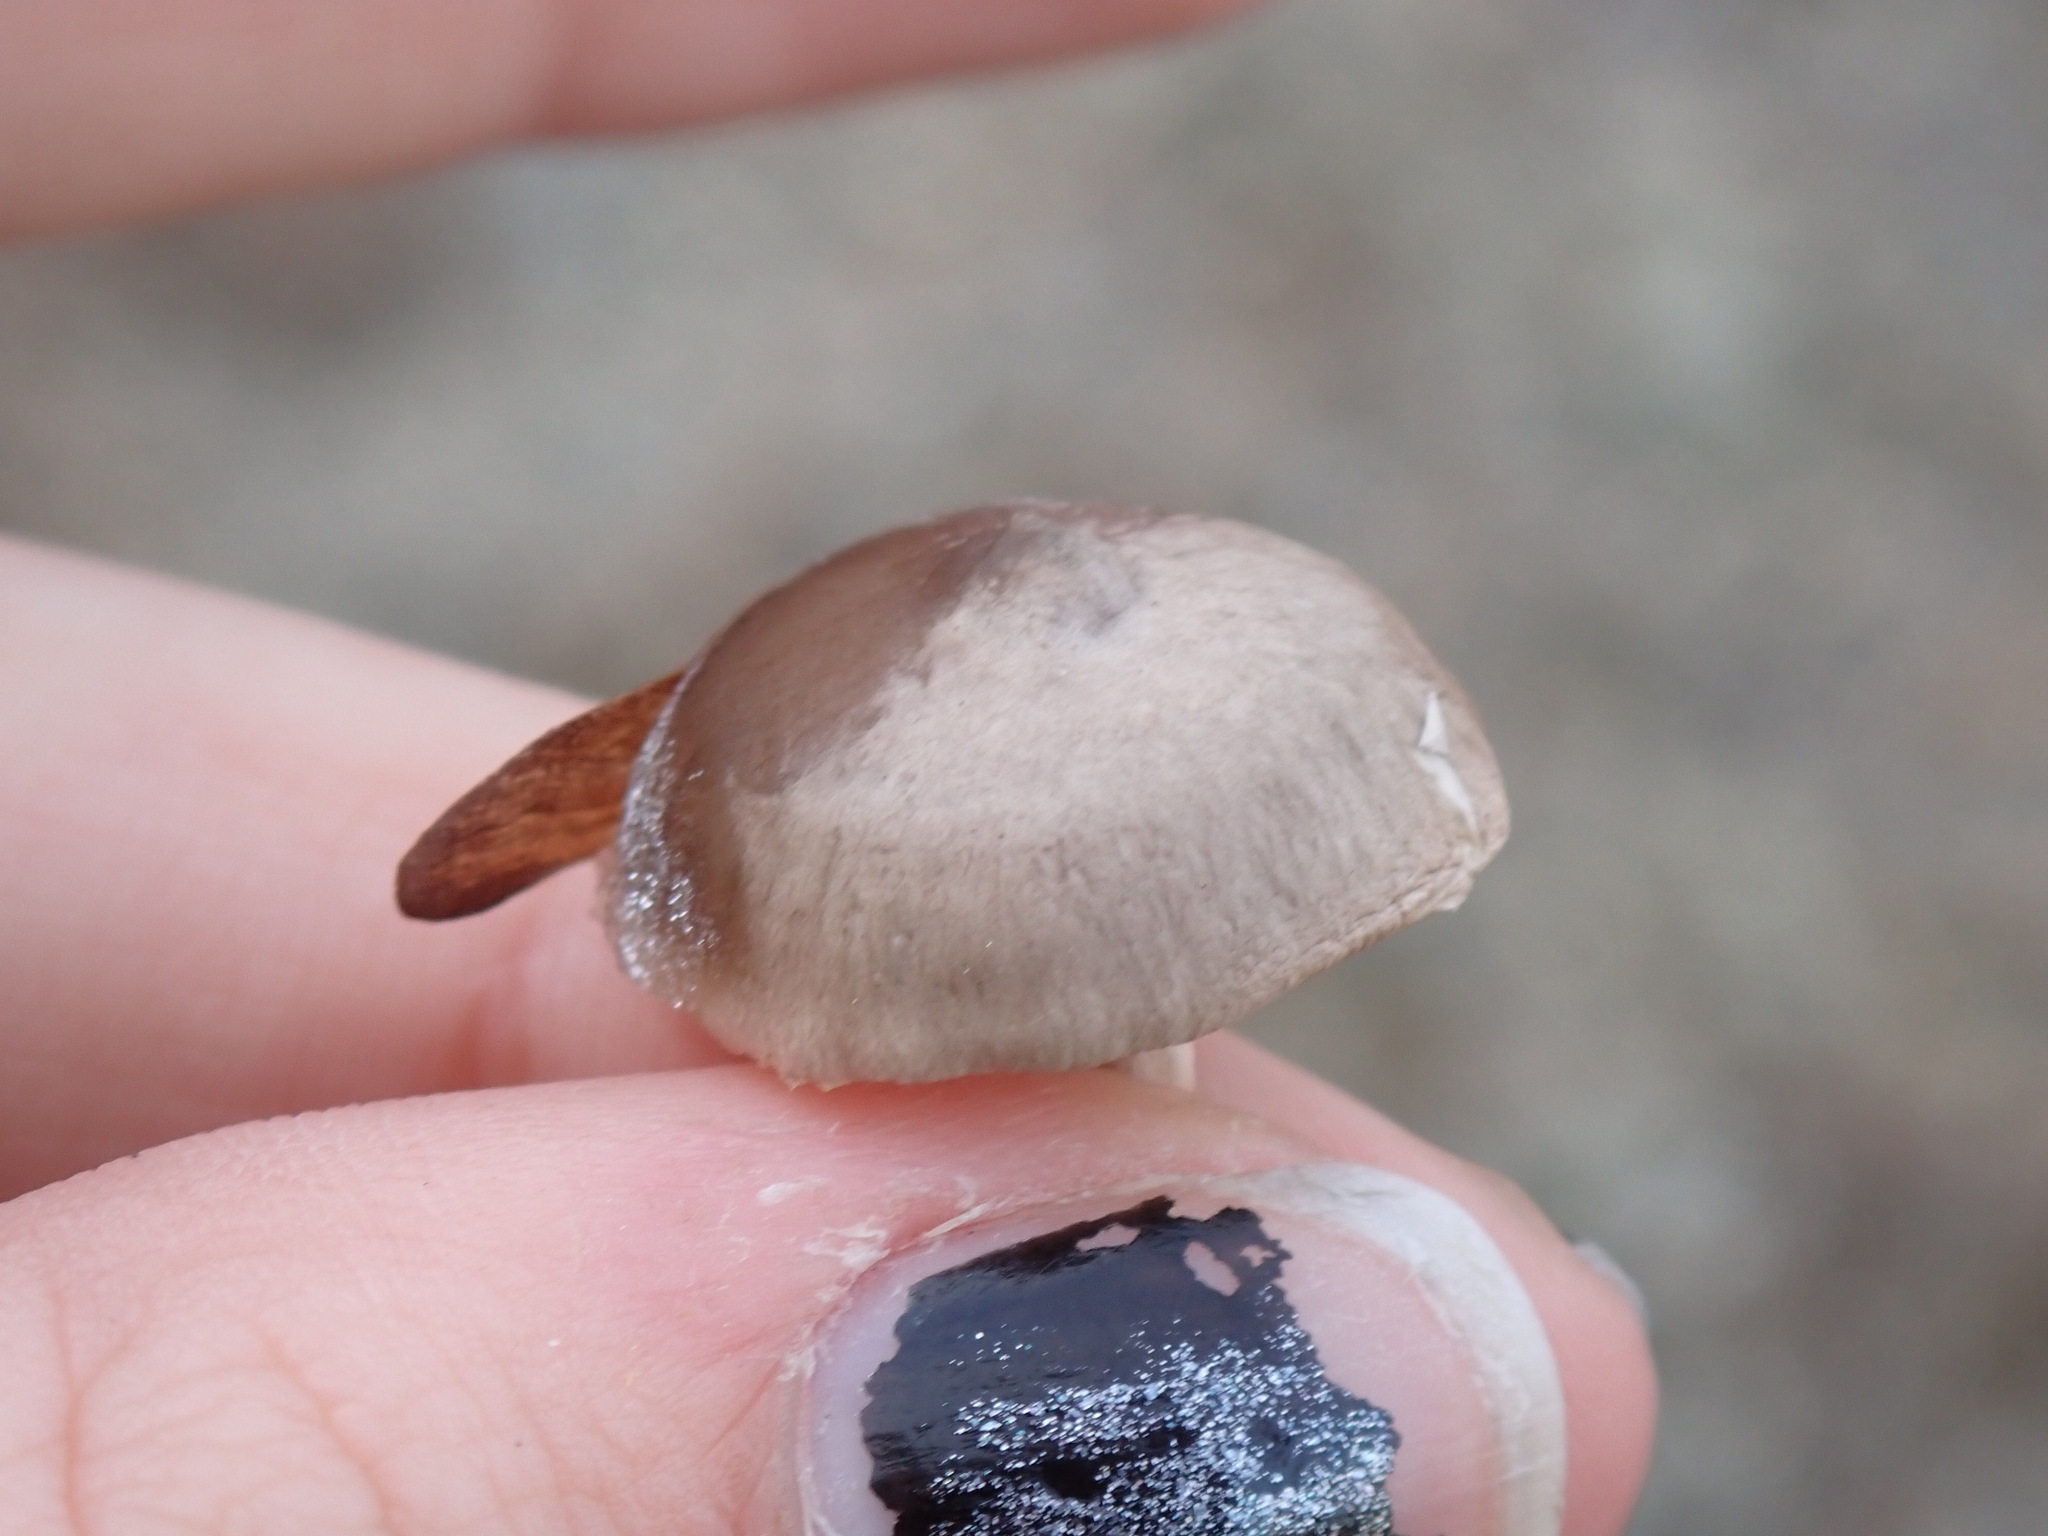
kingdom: Fungi
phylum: Basidiomycota
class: Agaricomycetes
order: Agaricales
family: Hygrophoraceae
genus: Cantharellula
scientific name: Cantharellula umbonata
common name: The humpback
